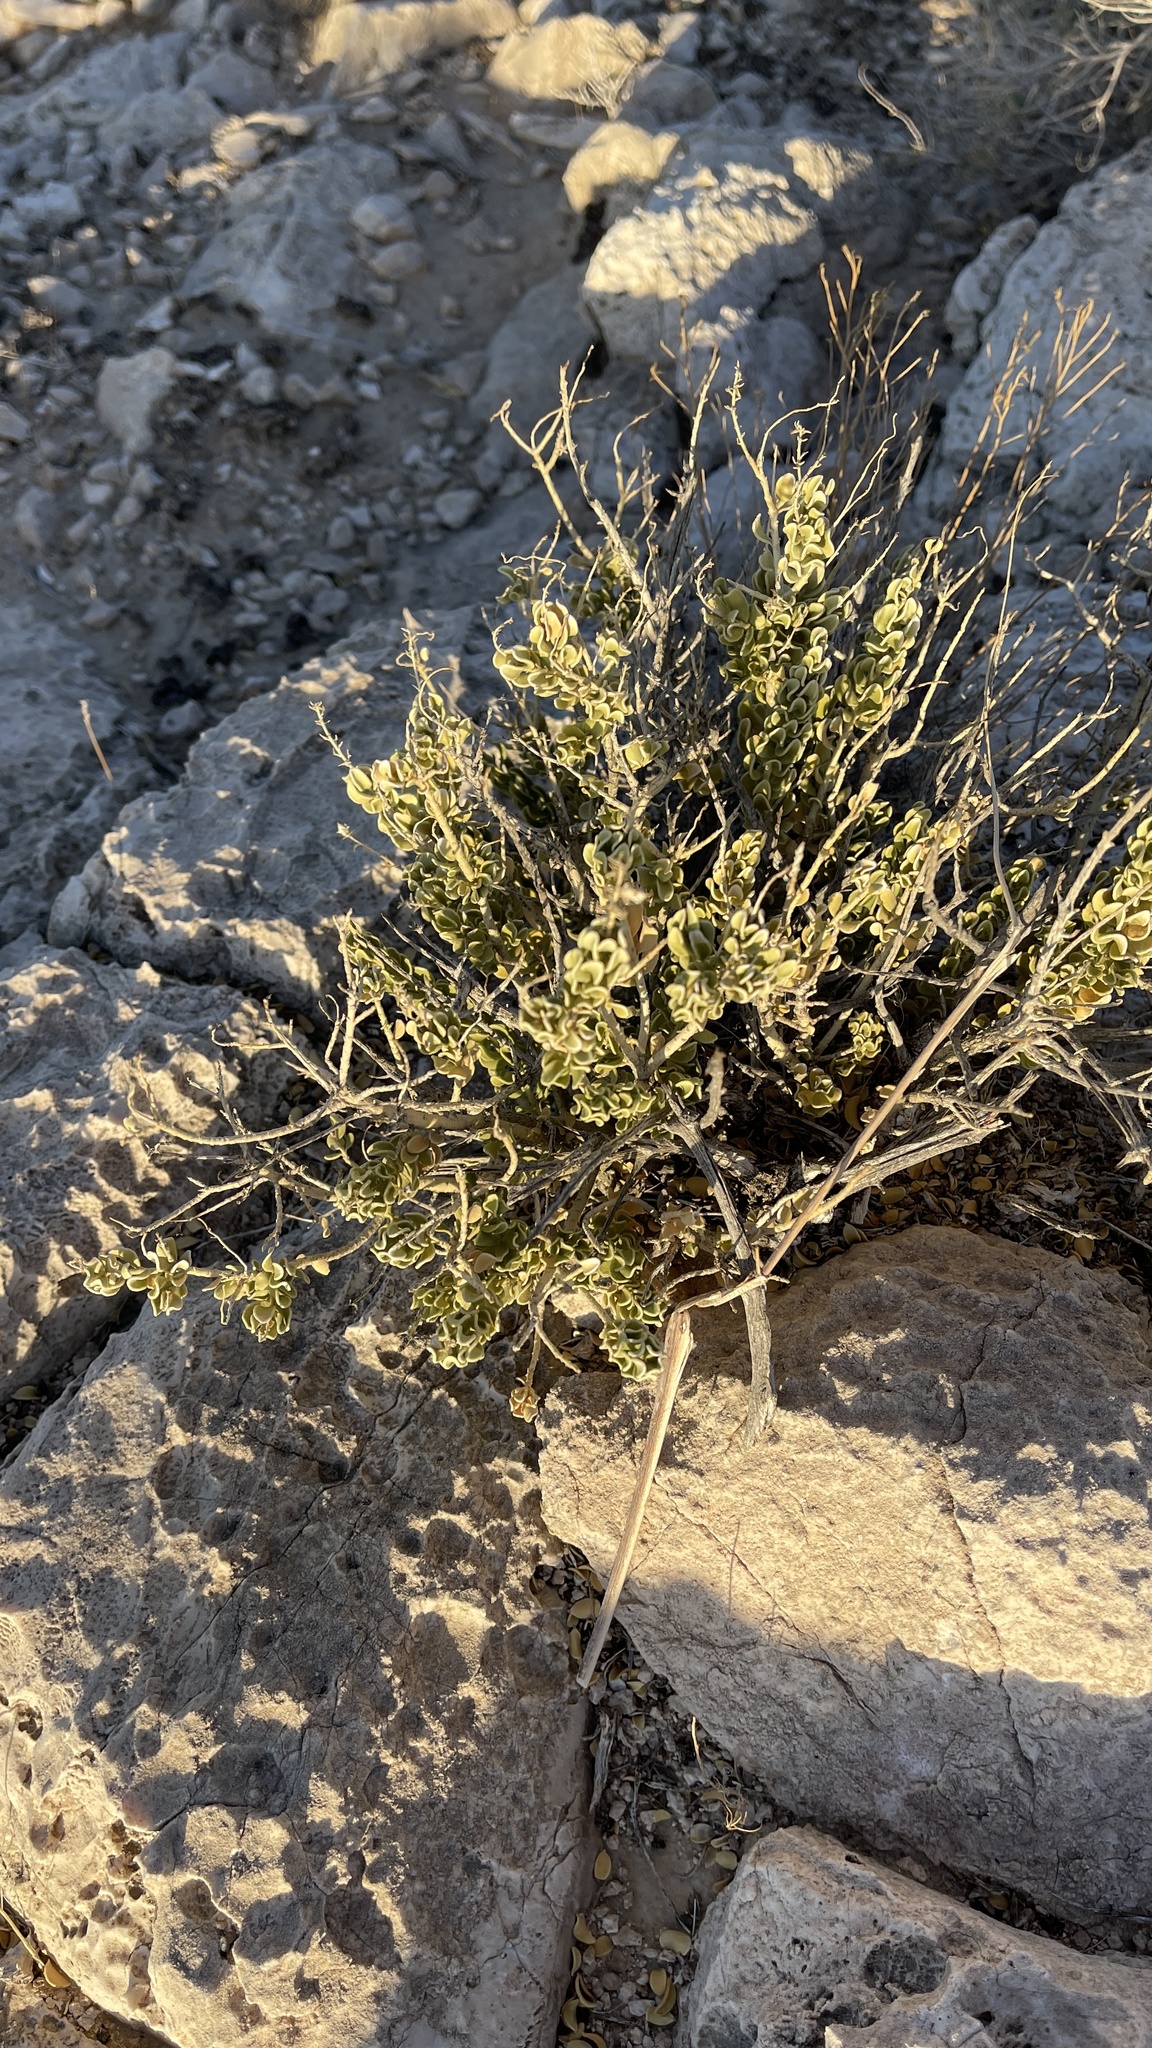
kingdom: Plantae
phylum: Tracheophyta
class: Magnoliopsida
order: Celastrales
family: Celastraceae
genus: Mortonia
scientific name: Mortonia utahensis
